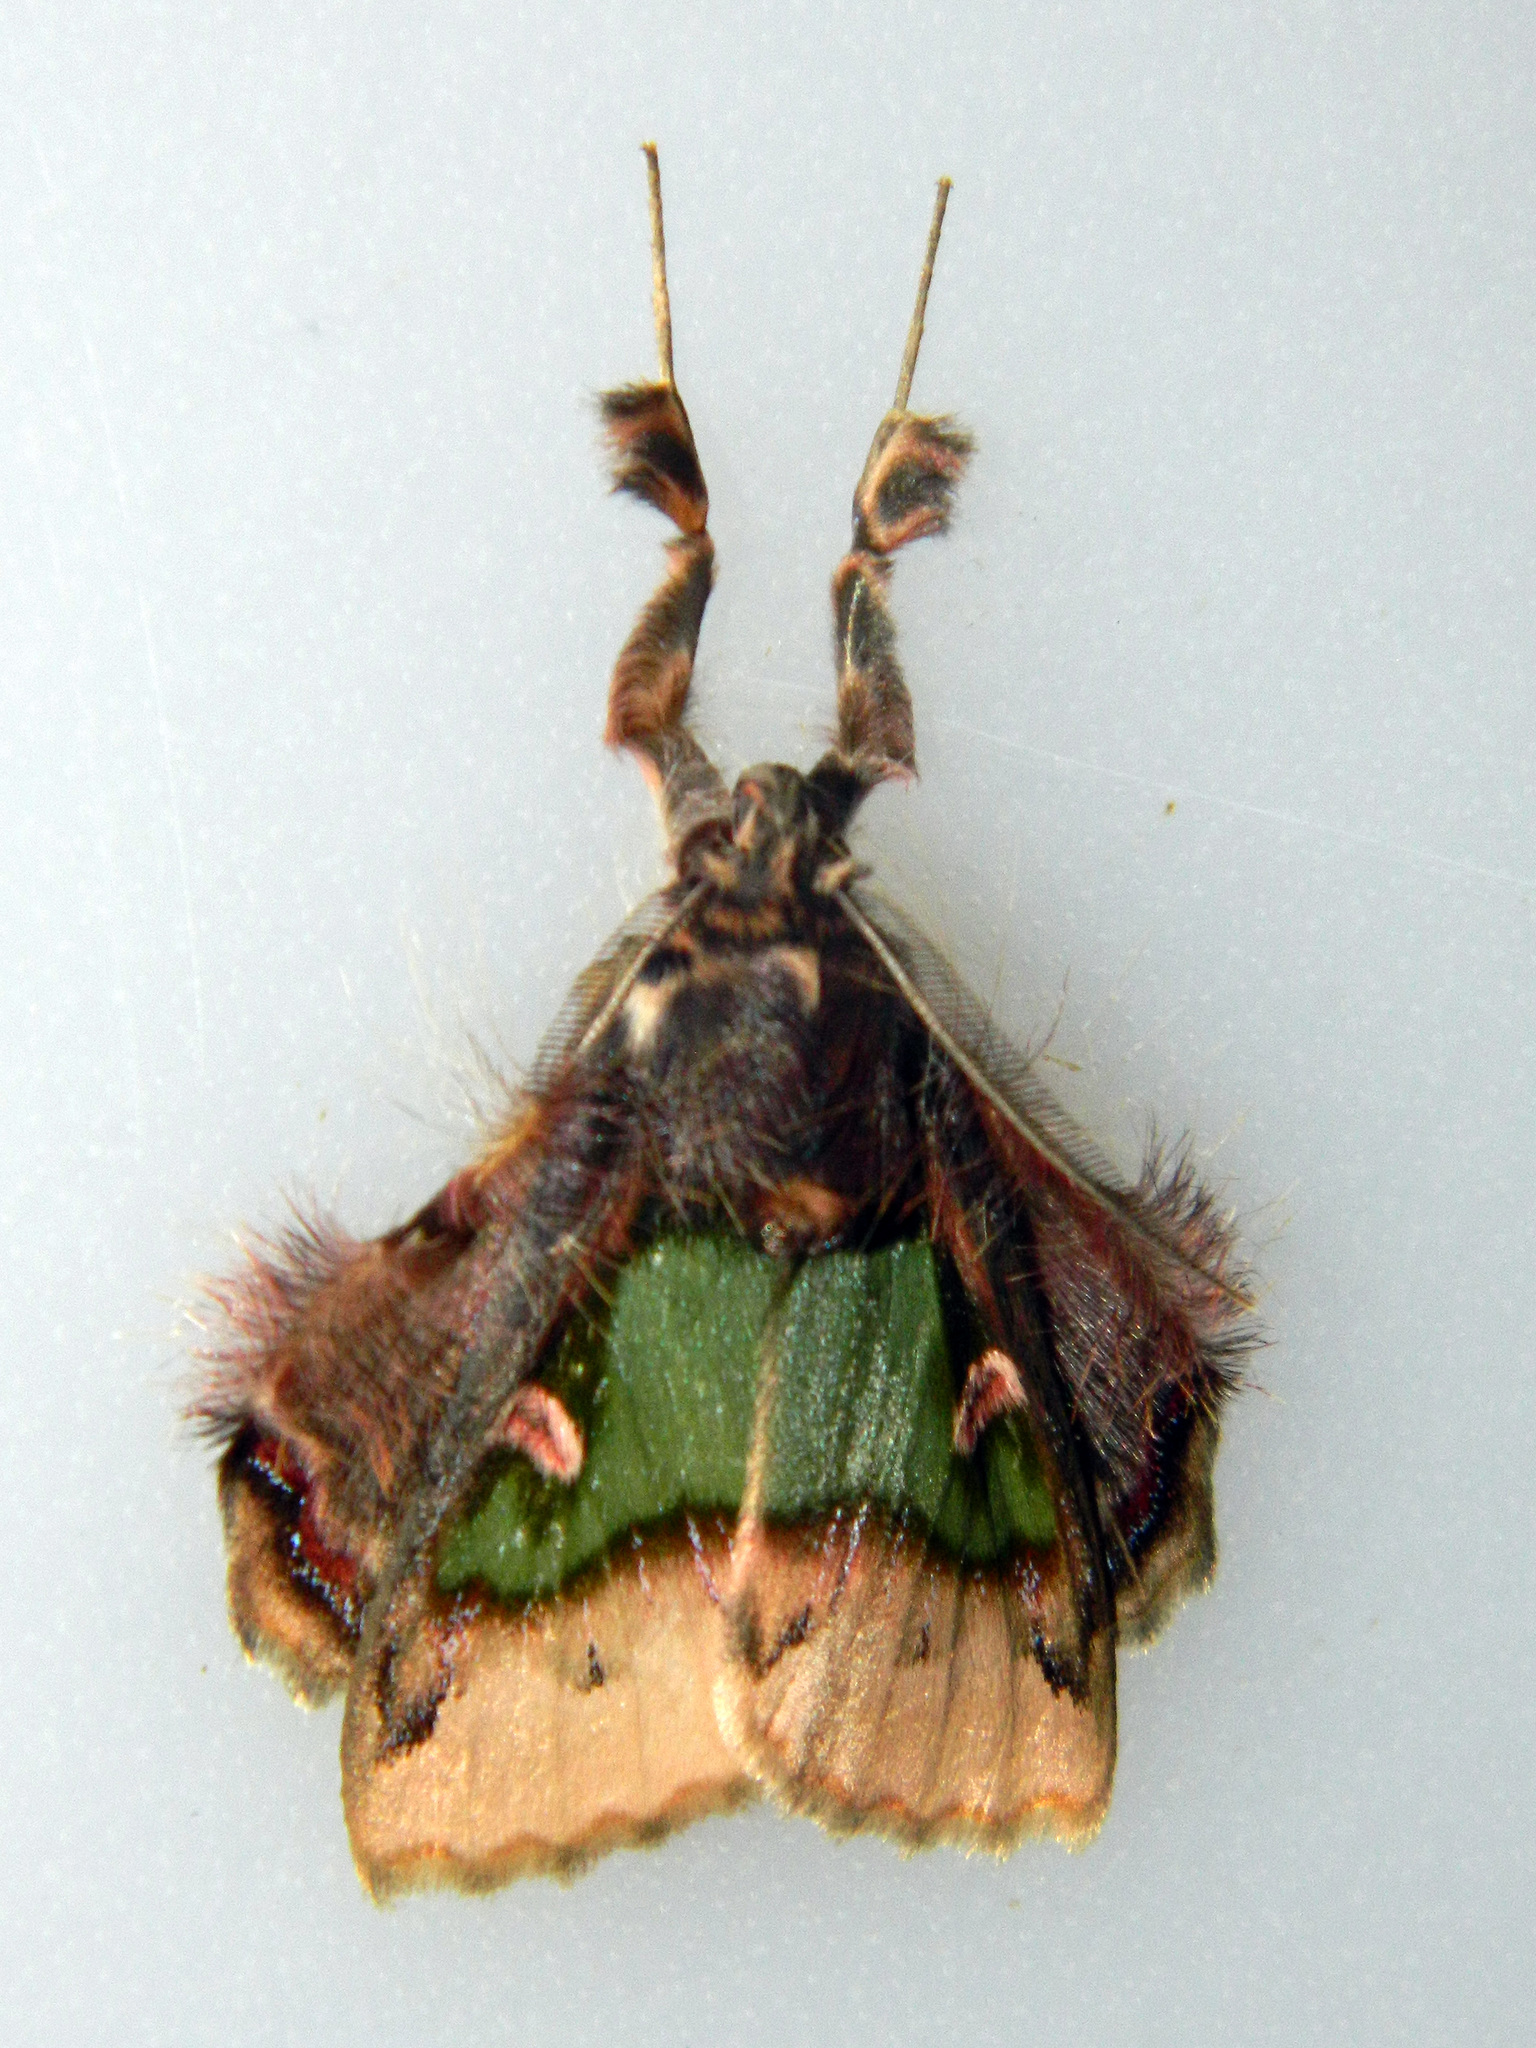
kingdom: Animalia
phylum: Arthropoda
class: Insecta
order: Lepidoptera
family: Erebidae
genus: Ceroctena
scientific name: Ceroctena amynta
